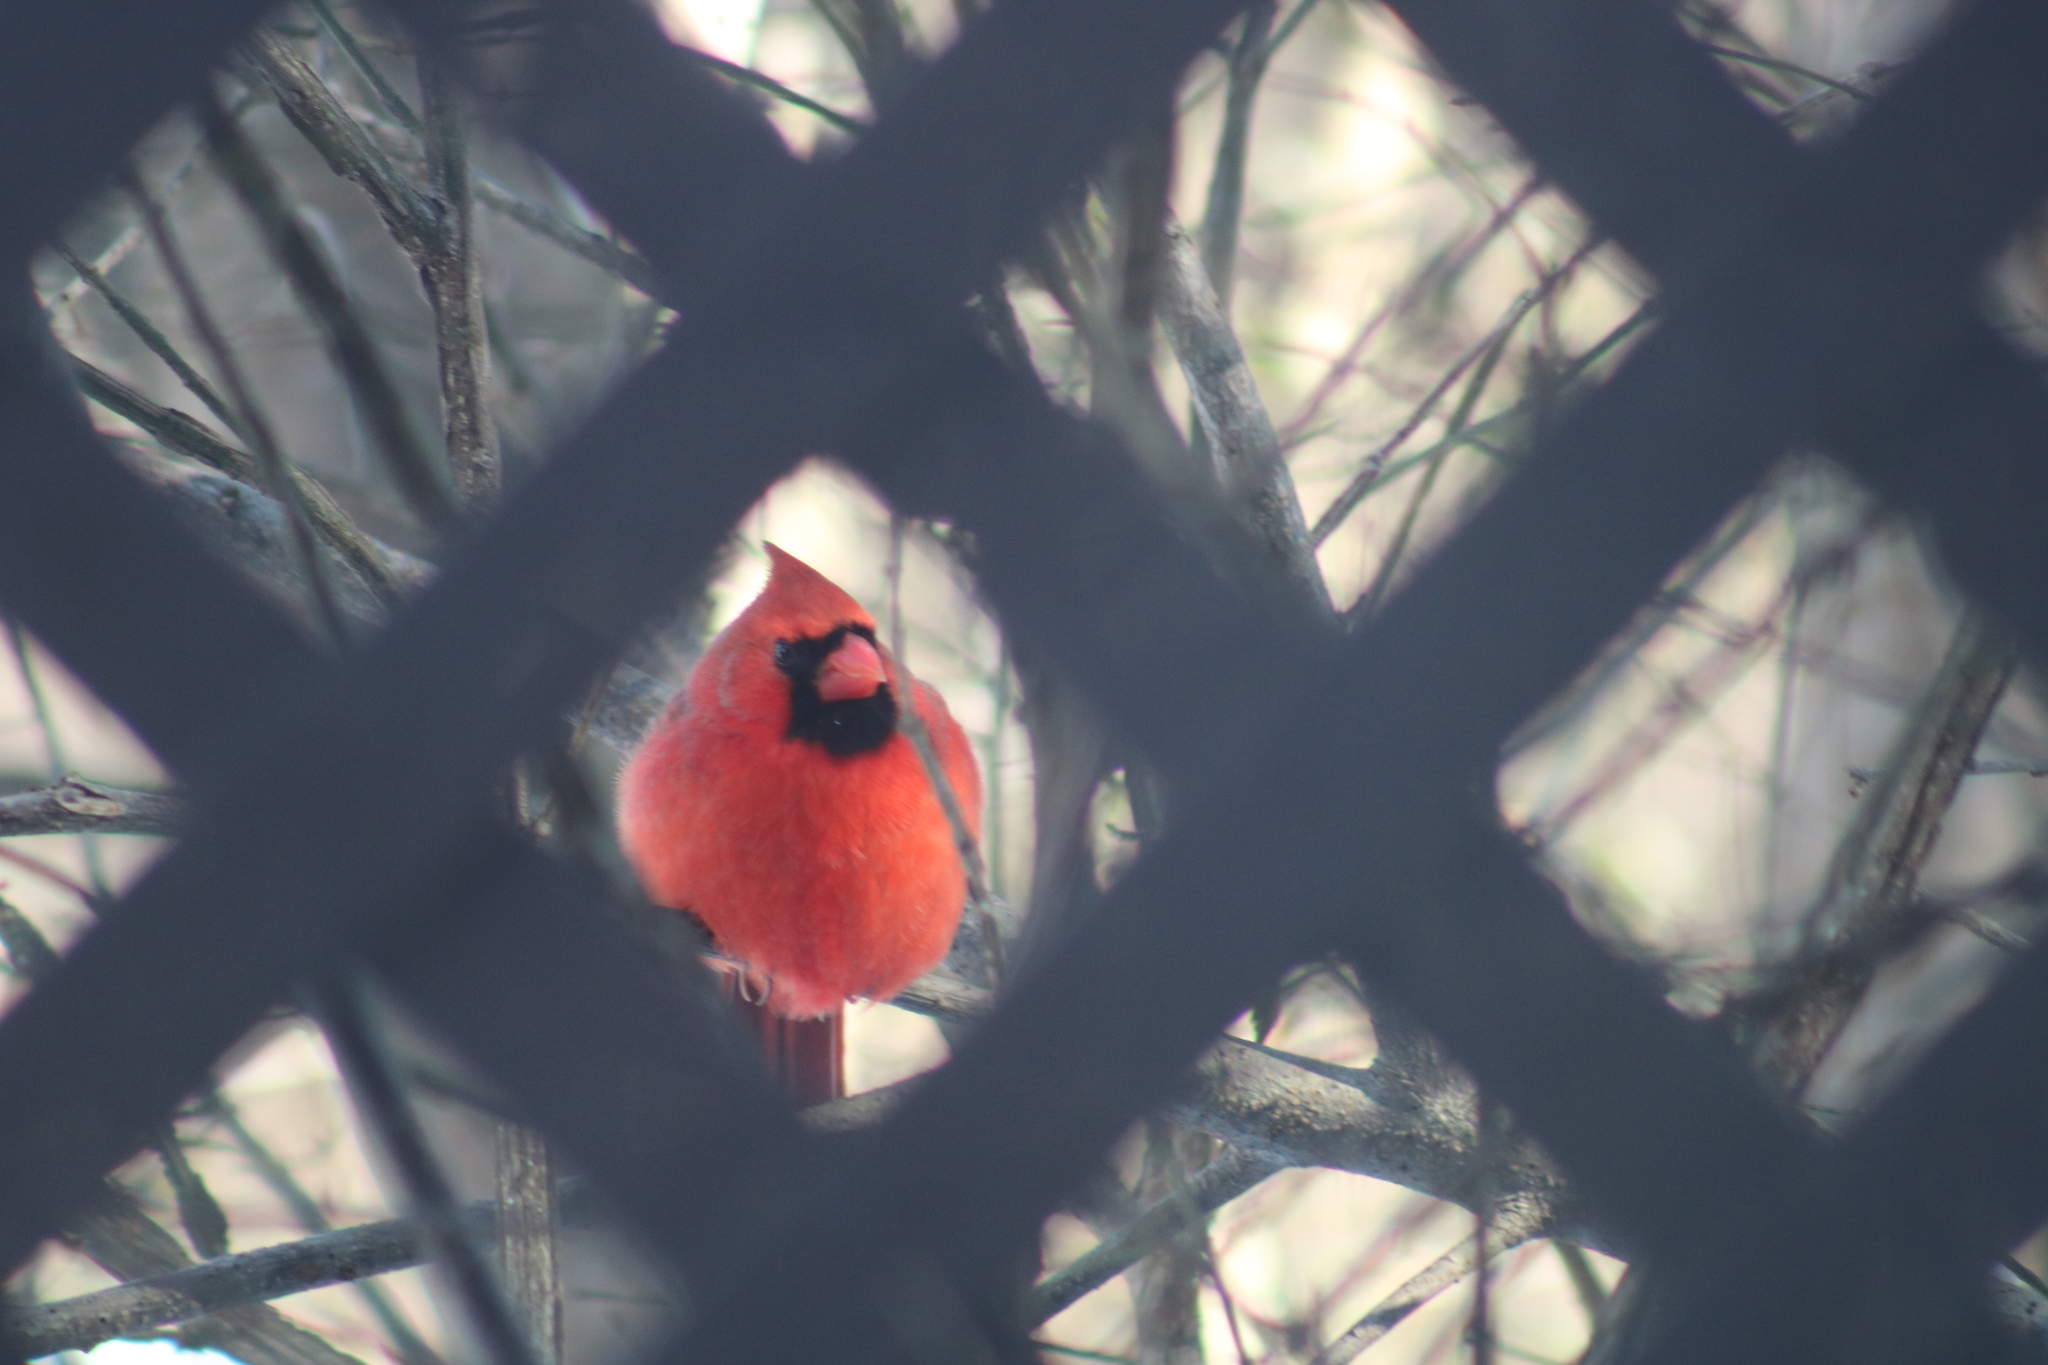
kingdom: Animalia
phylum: Chordata
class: Aves
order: Passeriformes
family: Cardinalidae
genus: Cardinalis
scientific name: Cardinalis cardinalis
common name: Northern cardinal
